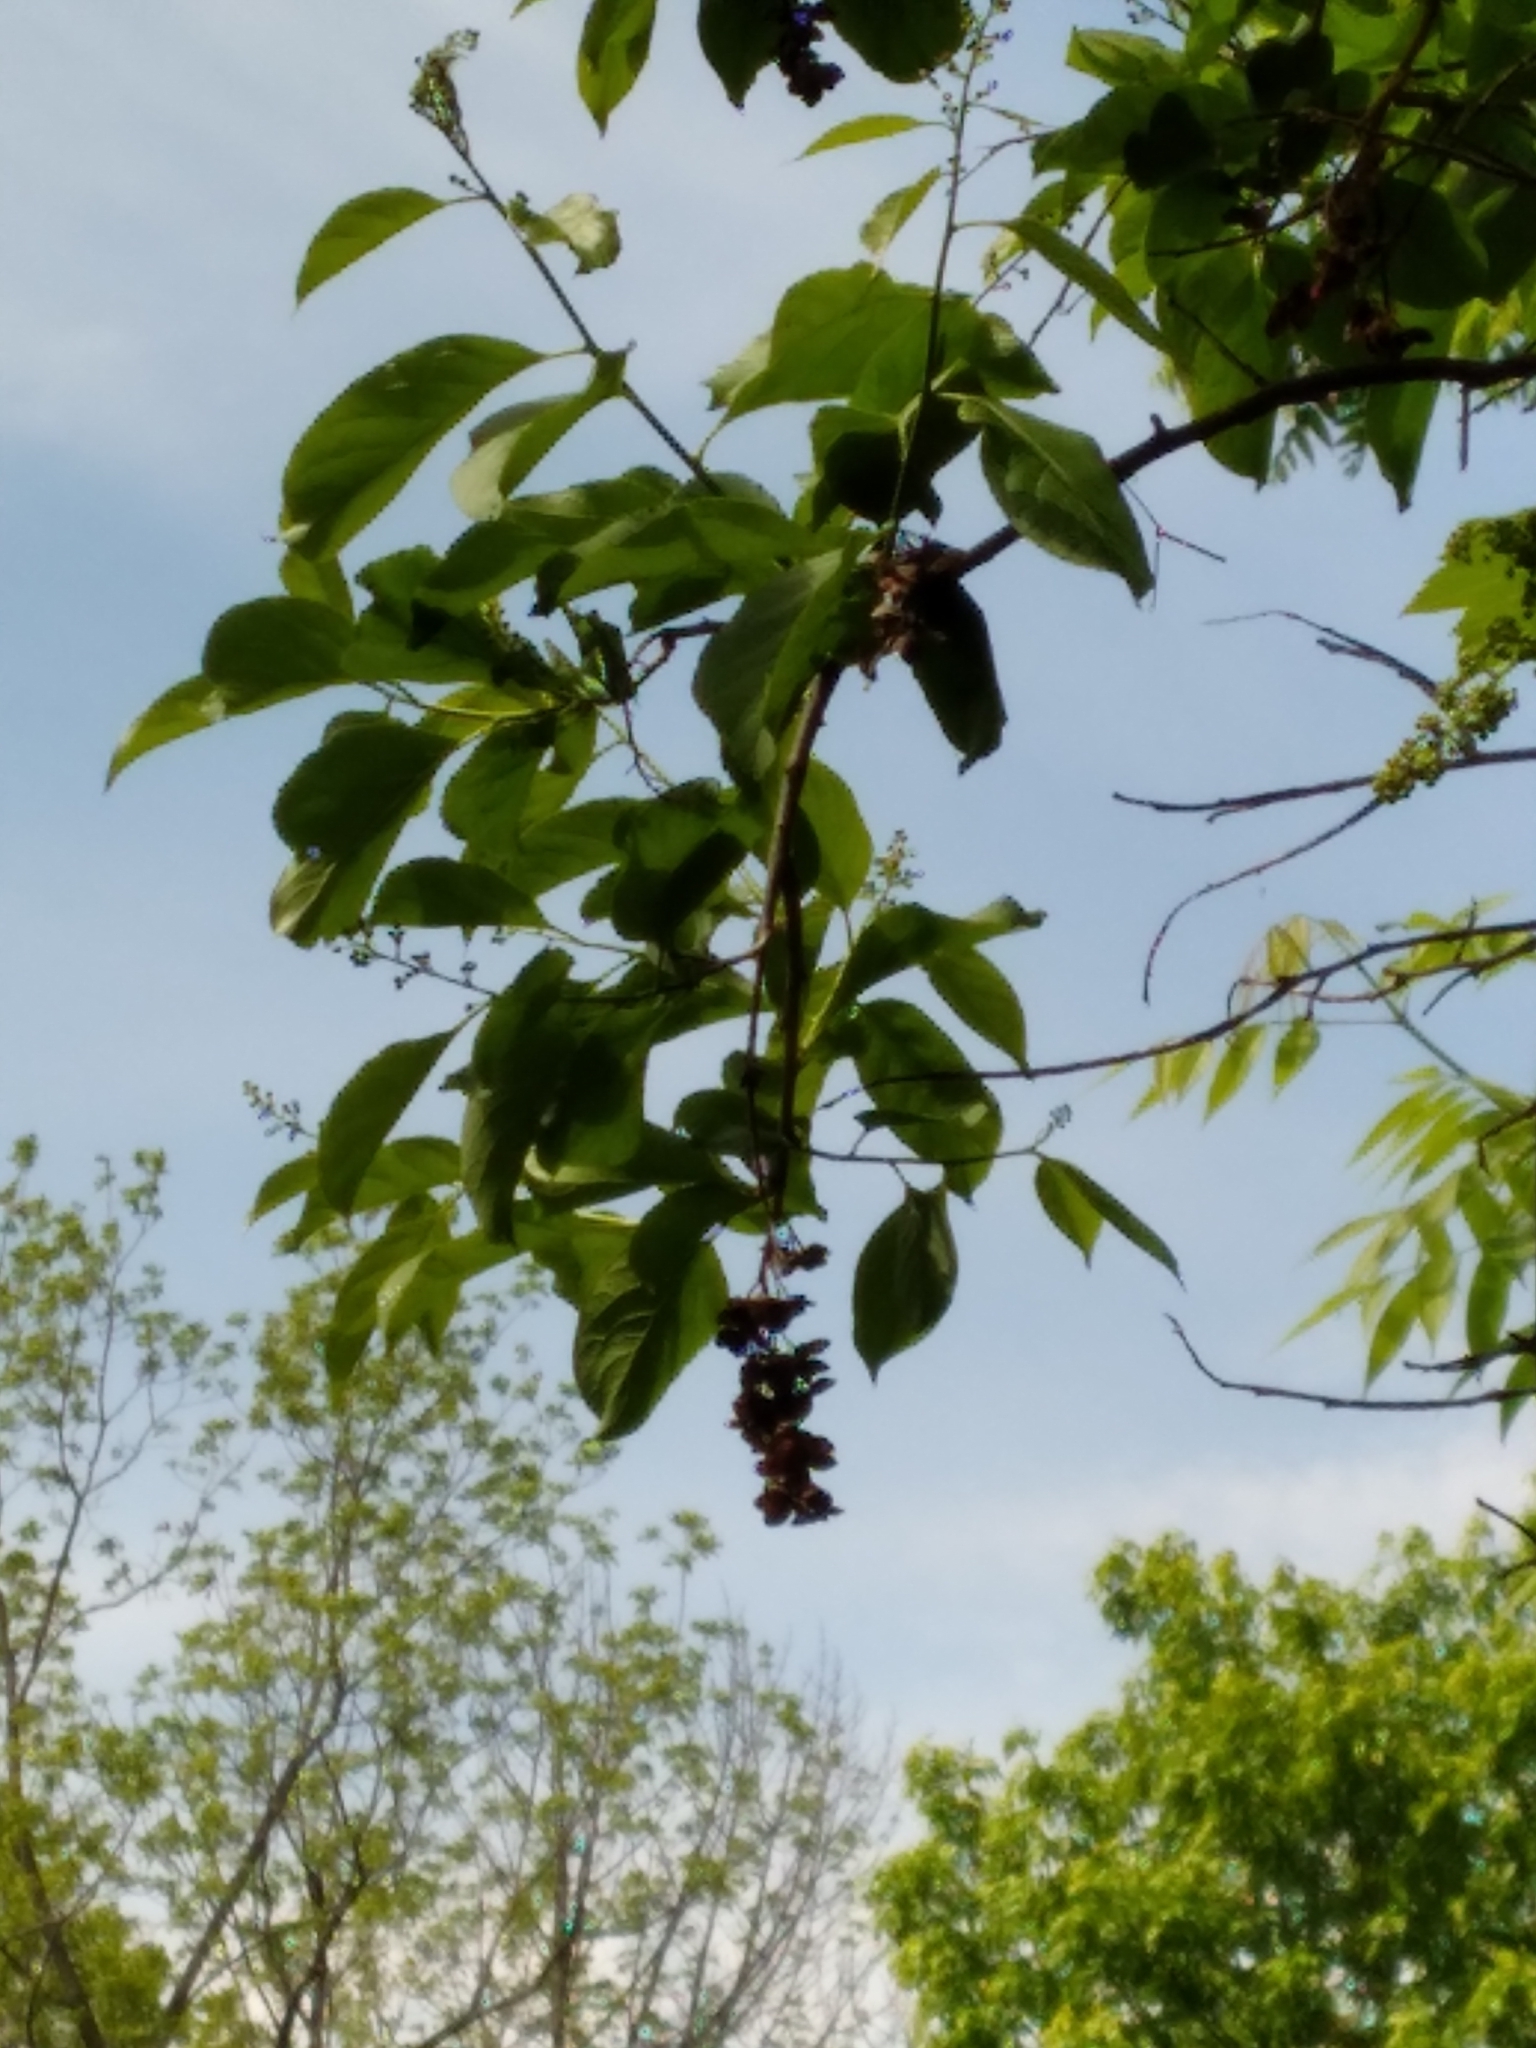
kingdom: Plantae
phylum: Tracheophyta
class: Magnoliopsida
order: Celastrales
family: Celastraceae
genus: Celastrus
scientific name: Celastrus scandens
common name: American bittersweet
